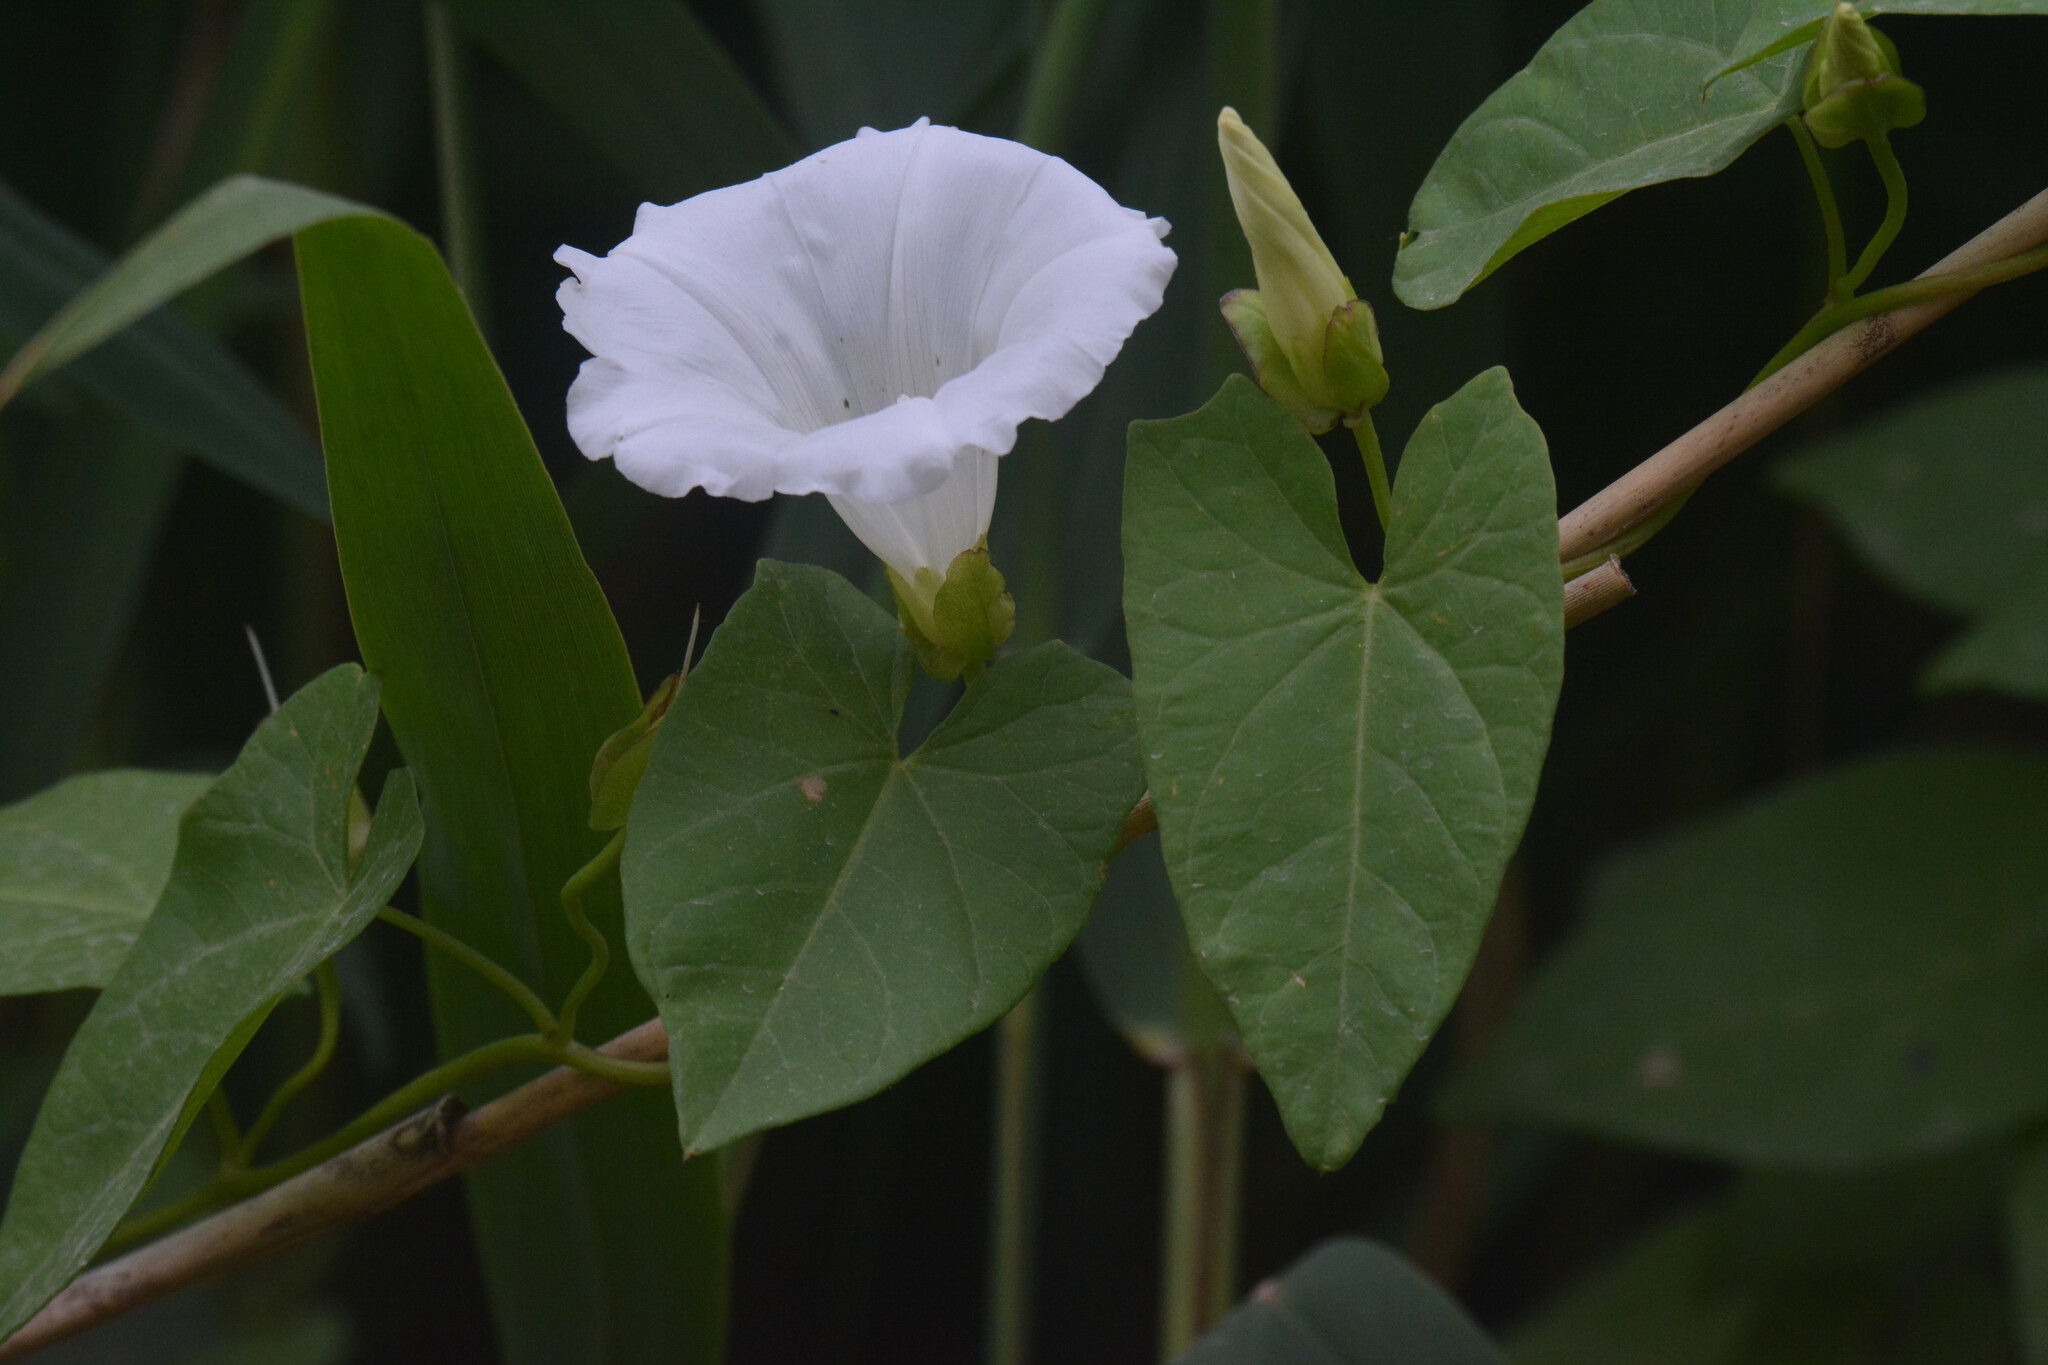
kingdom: Plantae
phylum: Tracheophyta
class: Magnoliopsida
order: Solanales
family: Convolvulaceae
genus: Calystegia
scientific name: Calystegia sepium
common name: Hedge bindweed
